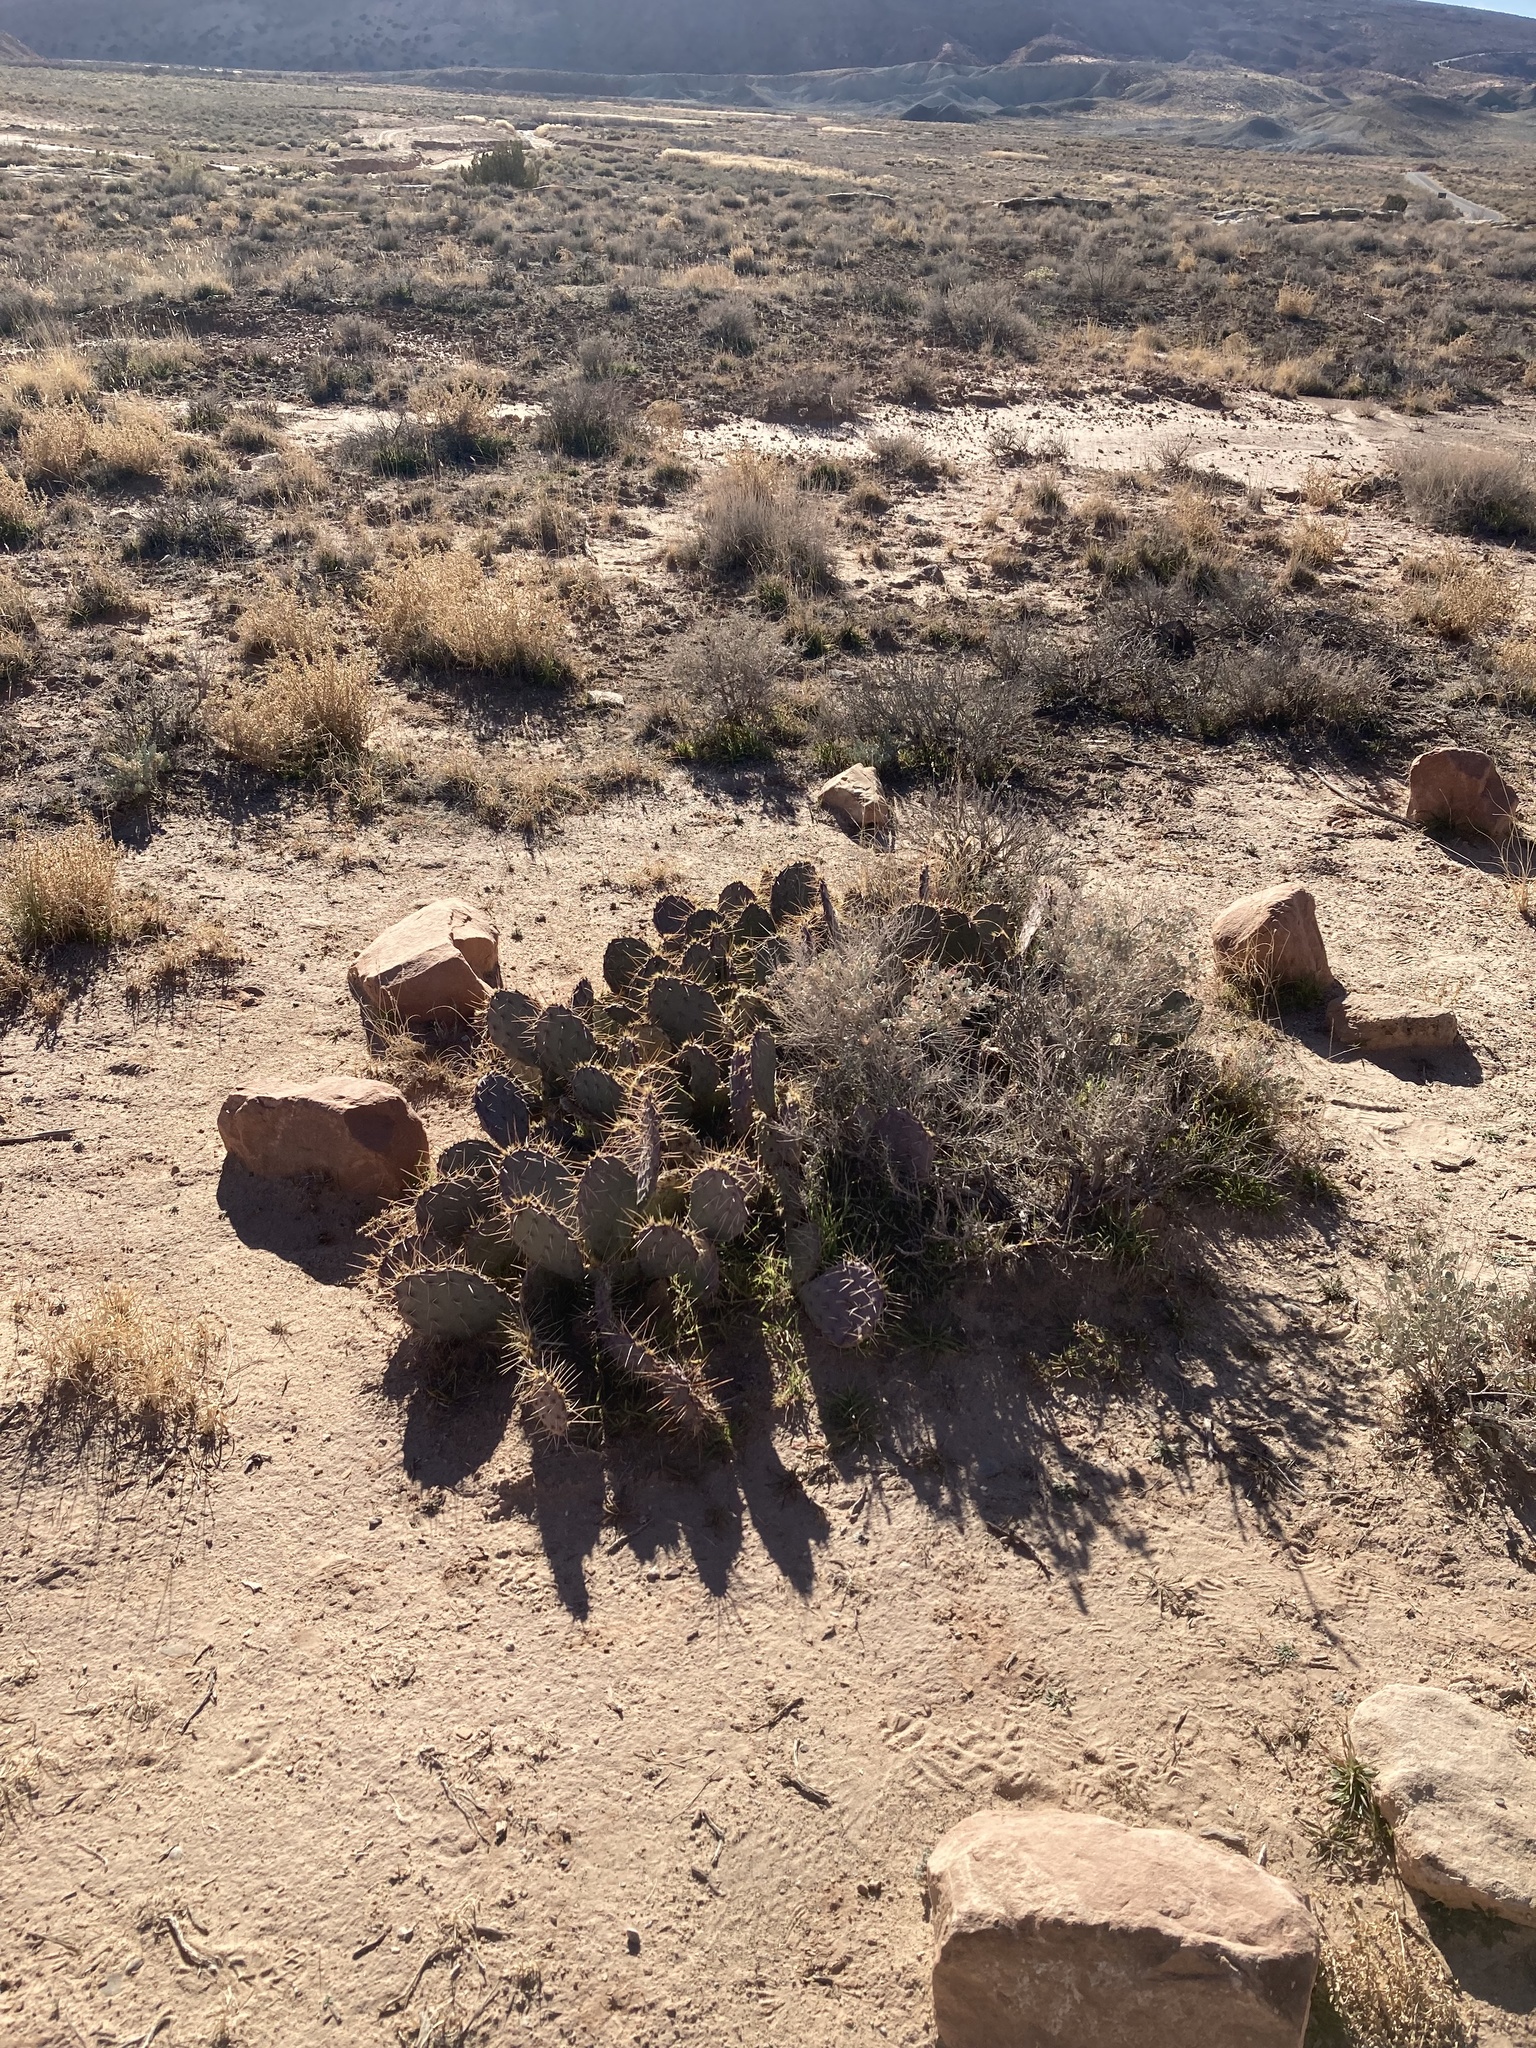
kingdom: Plantae
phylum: Tracheophyta
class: Magnoliopsida
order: Caryophyllales
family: Cactaceae
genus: Opuntia
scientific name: Opuntia phaeacantha
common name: New mexico prickly-pear
